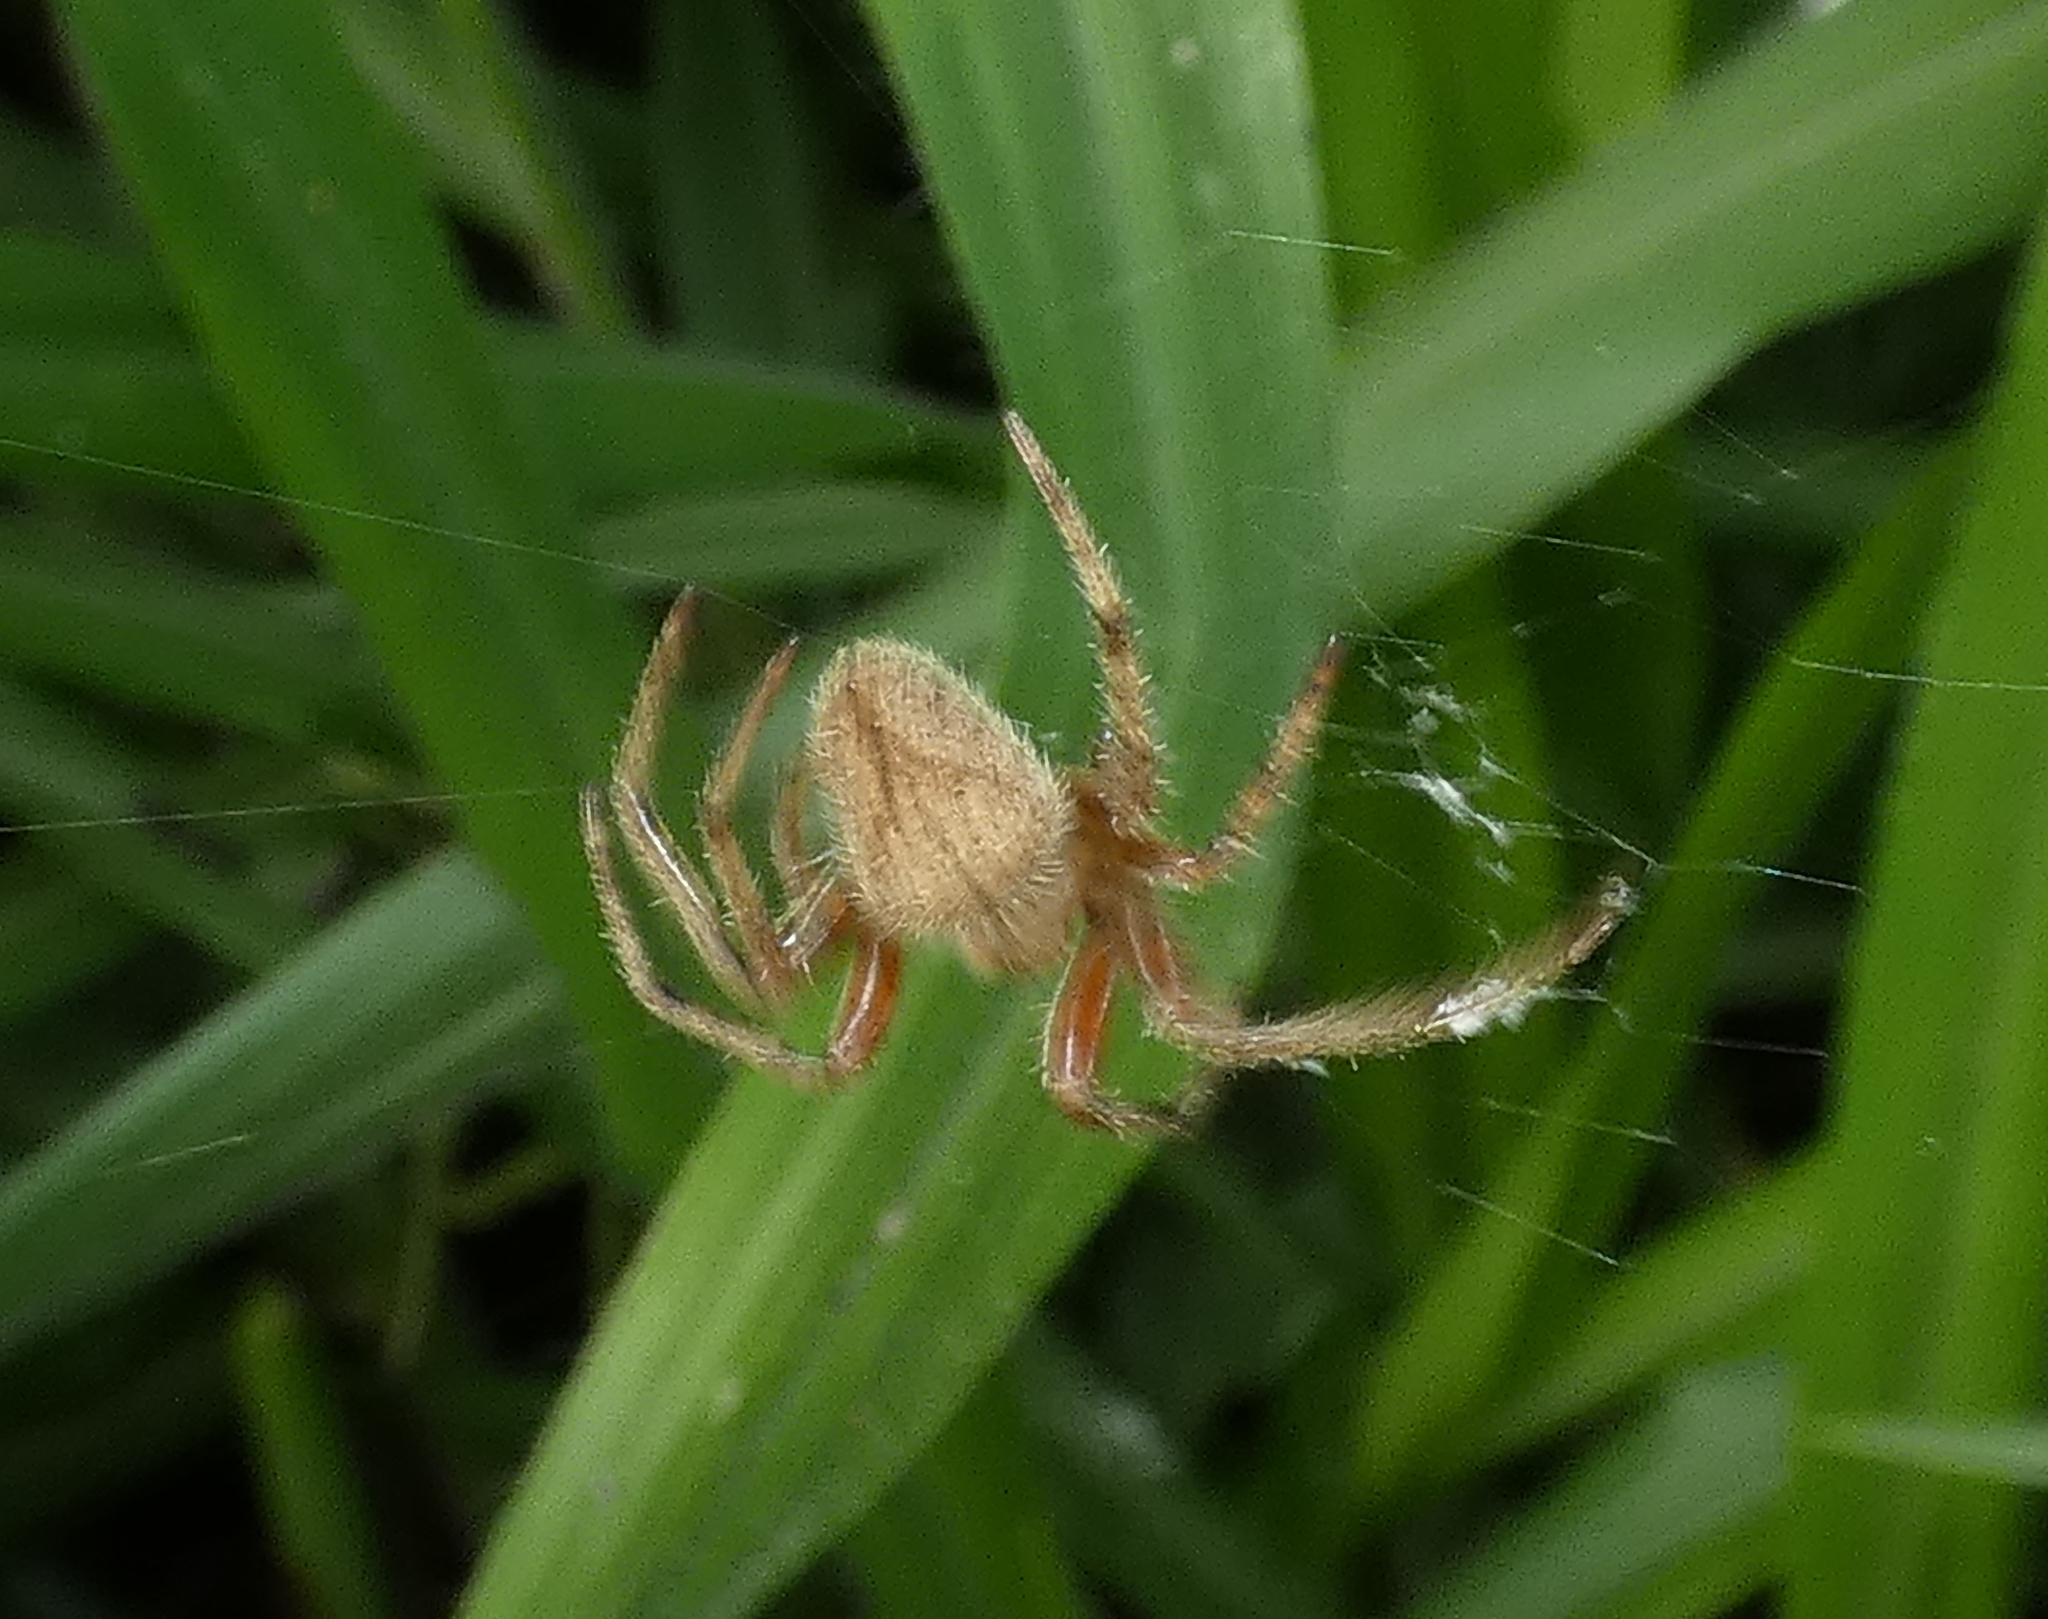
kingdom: Animalia
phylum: Arthropoda
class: Arachnida
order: Araneae
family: Araneidae
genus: Eriophora
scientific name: Eriophora edax
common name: Orb weavers
